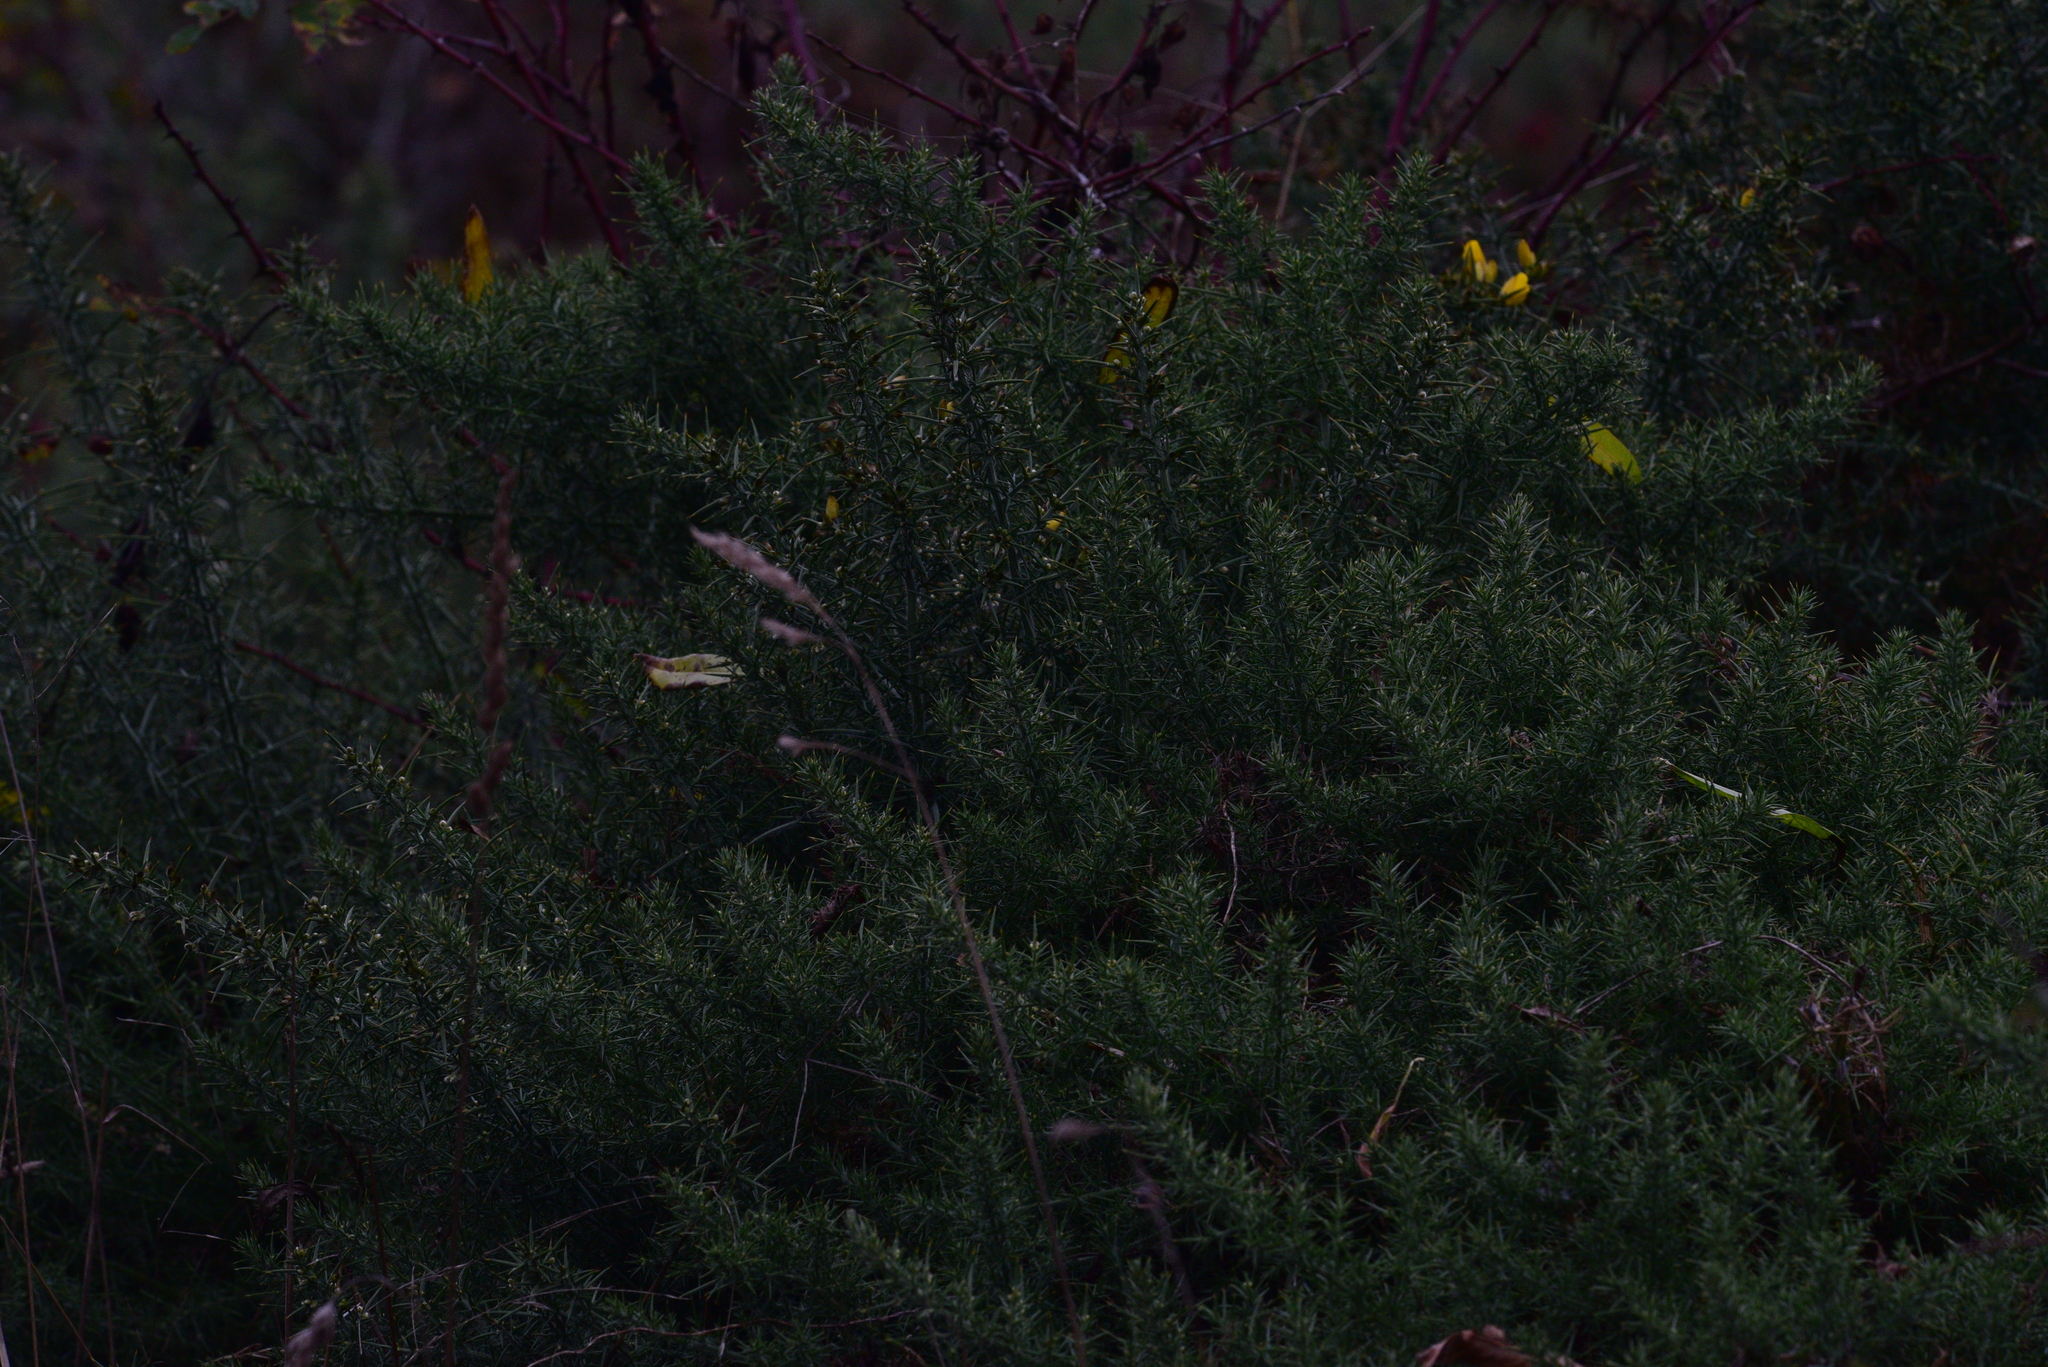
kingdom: Plantae
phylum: Tracheophyta
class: Magnoliopsida
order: Fabales
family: Fabaceae
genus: Ulex
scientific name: Ulex europaeus
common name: Common gorse
